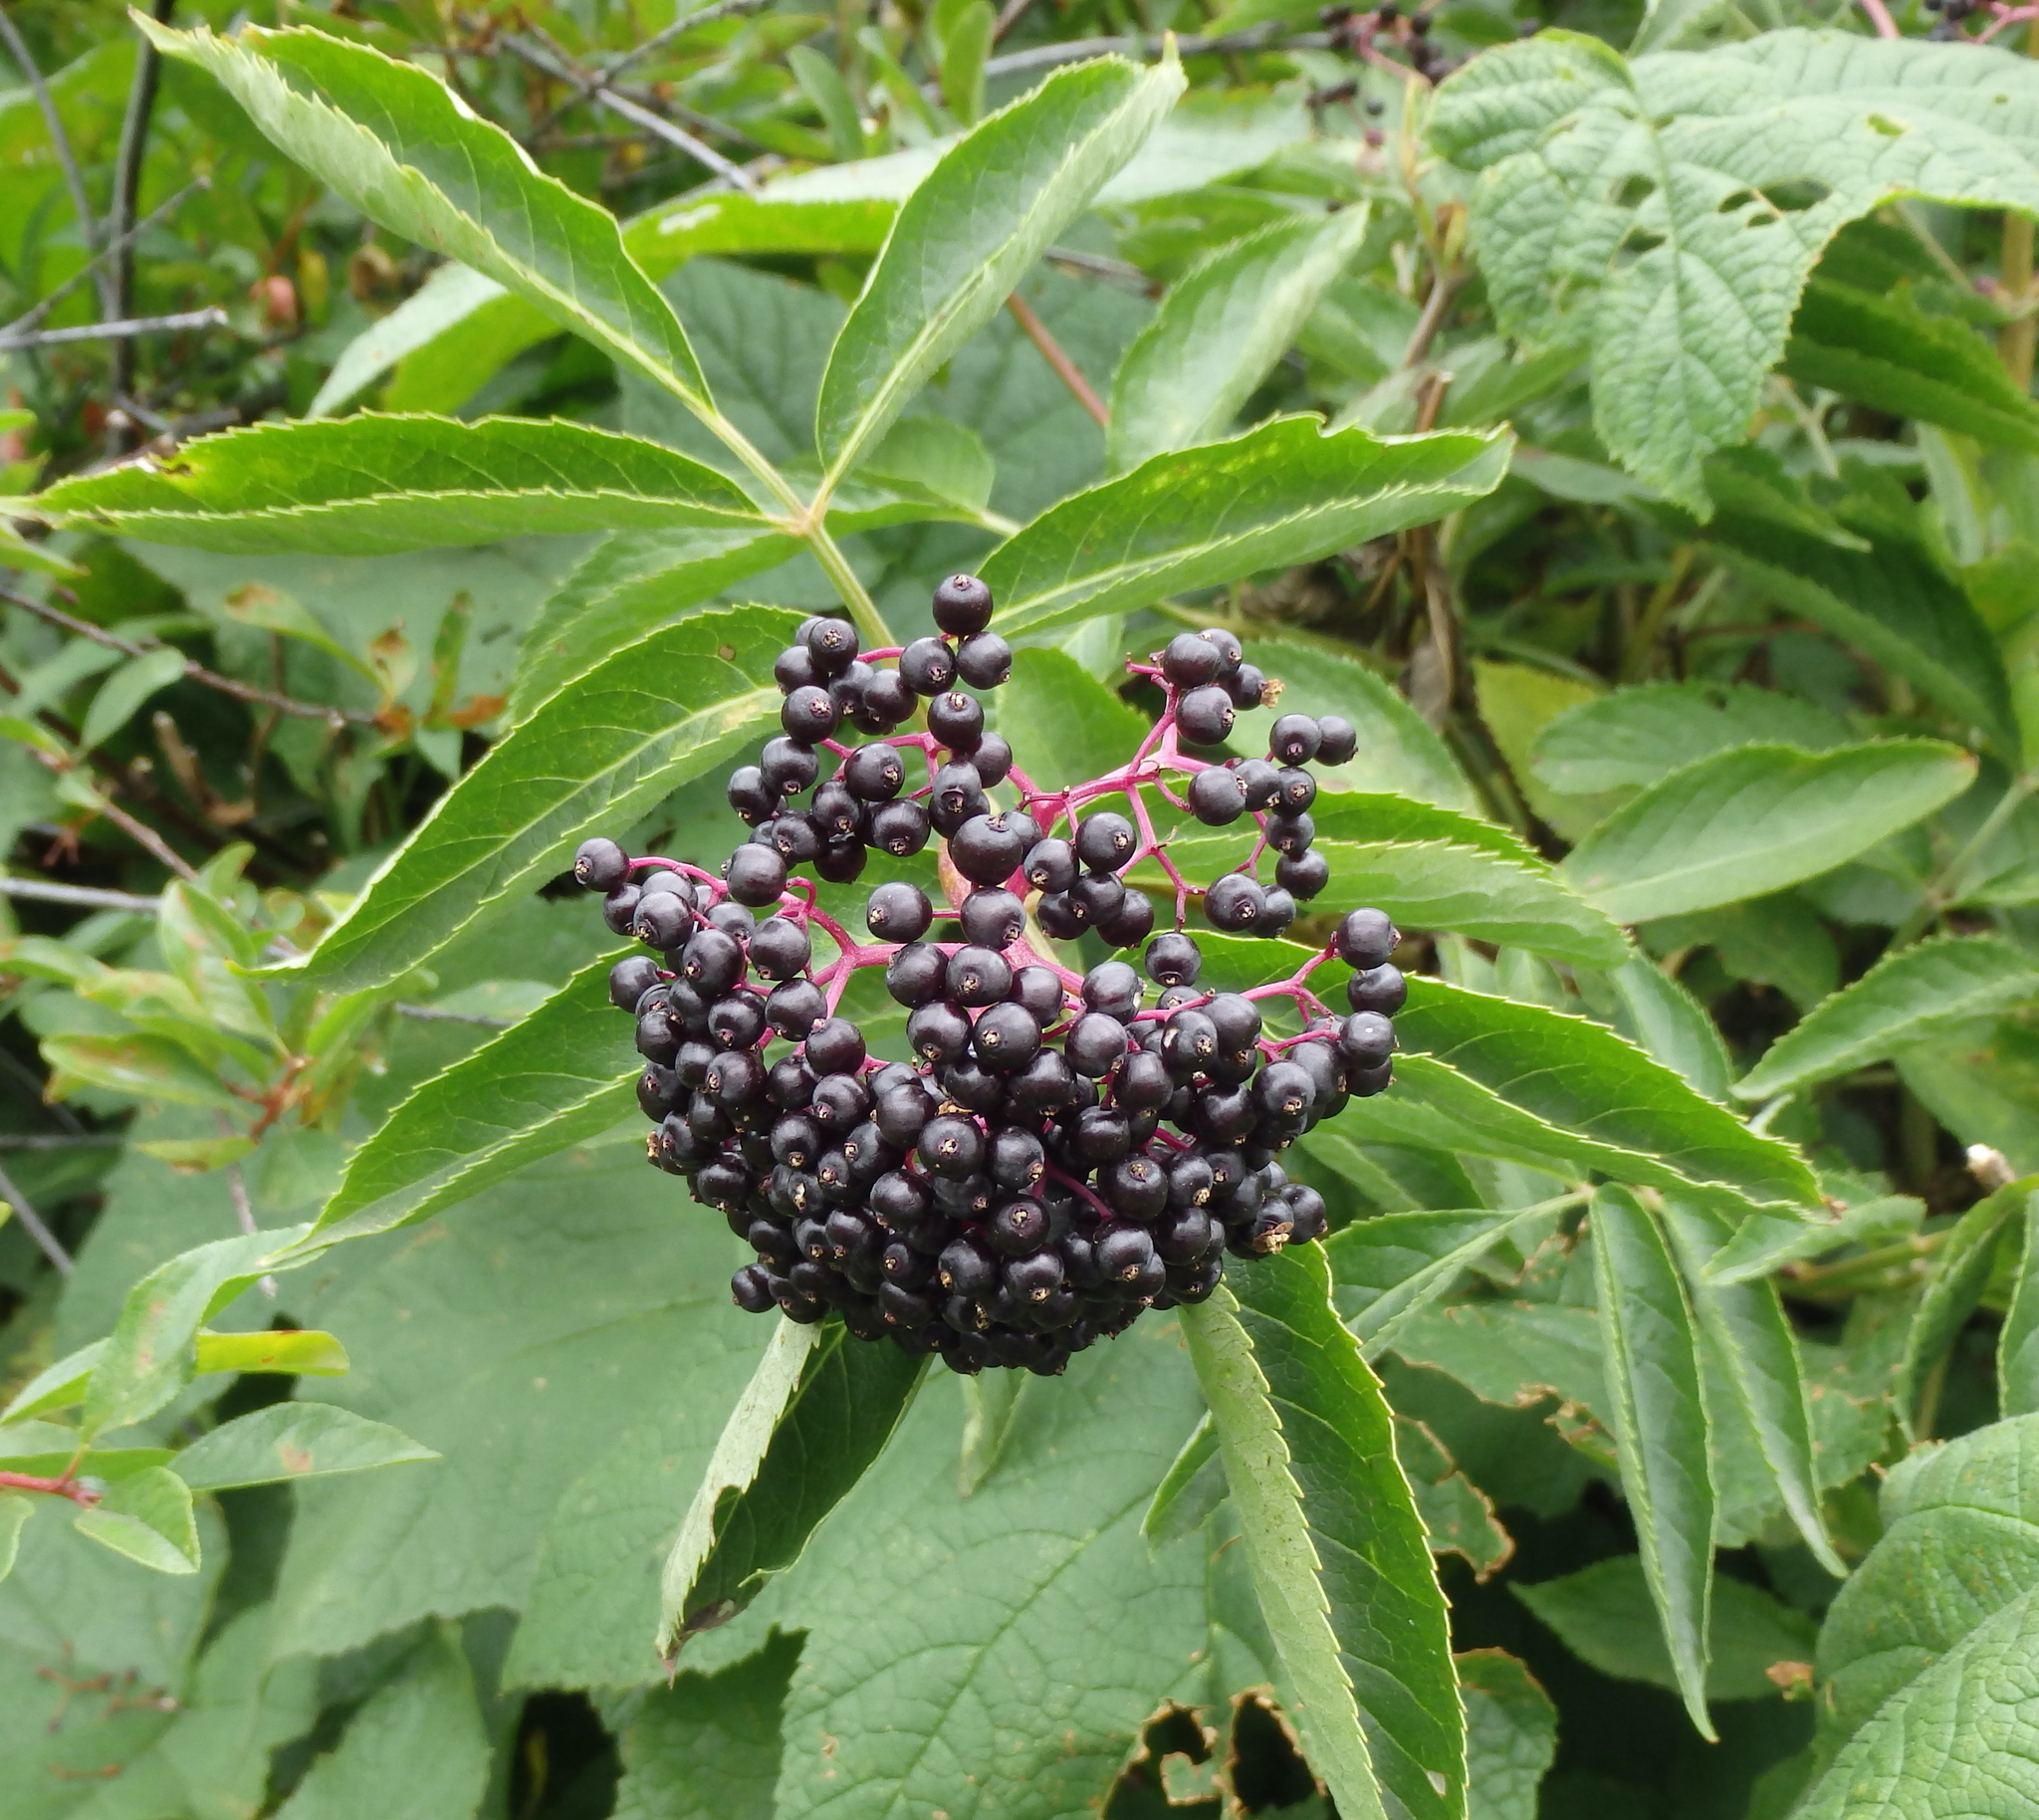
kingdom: Plantae
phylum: Tracheophyta
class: Magnoliopsida
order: Dipsacales
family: Viburnaceae
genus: Sambucus
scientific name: Sambucus racemosa
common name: Red-berried elder
